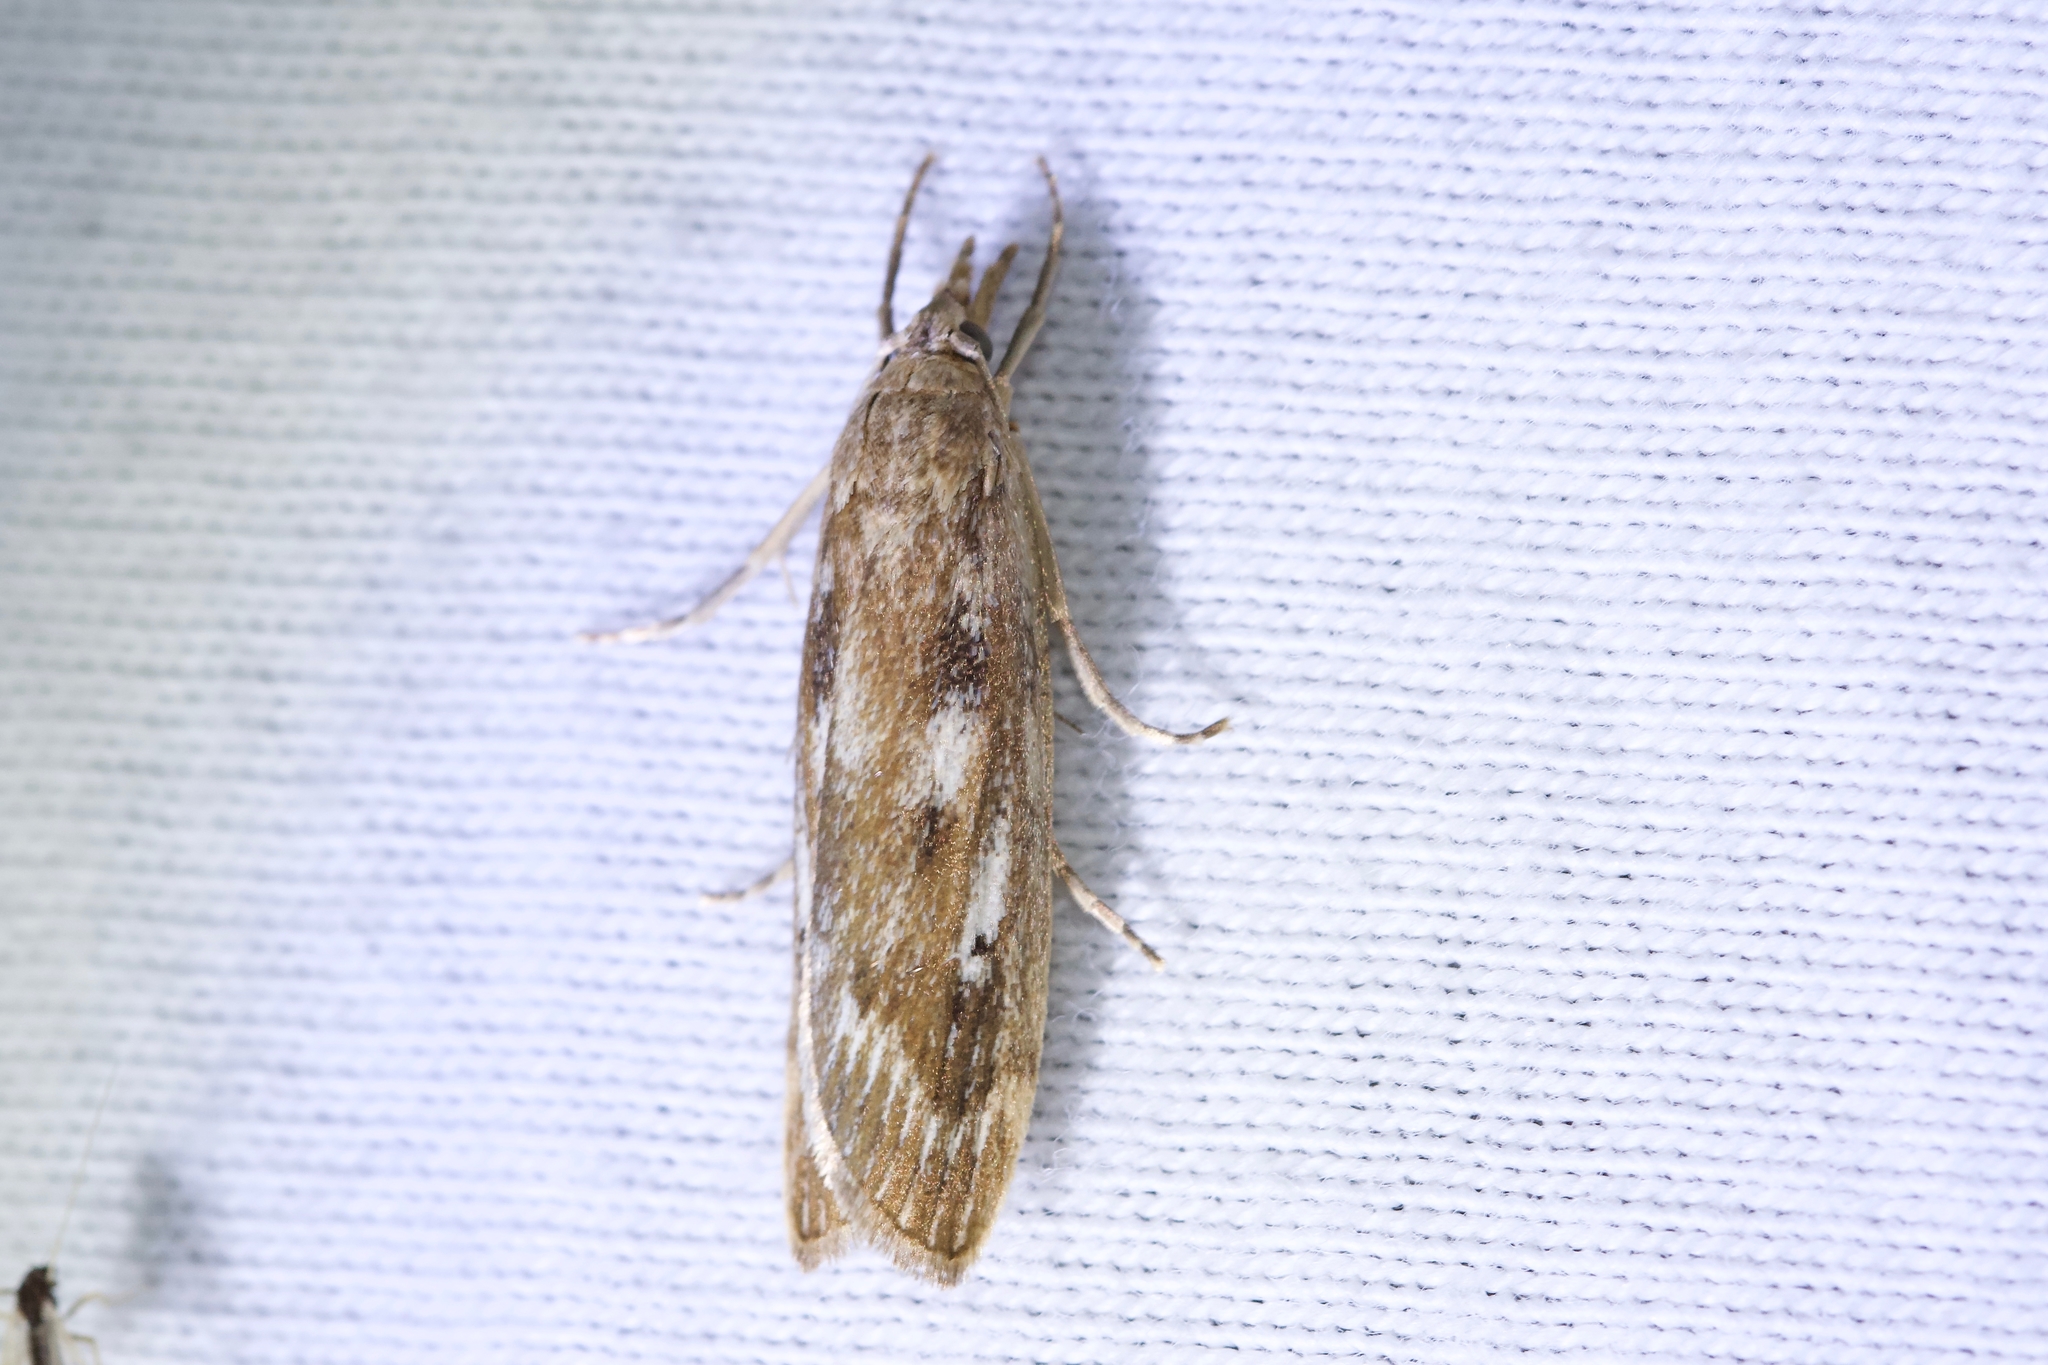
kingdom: Animalia
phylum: Arthropoda
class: Insecta
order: Lepidoptera
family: Crambidae
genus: Occidentalia
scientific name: Occidentalia comptulatalis
